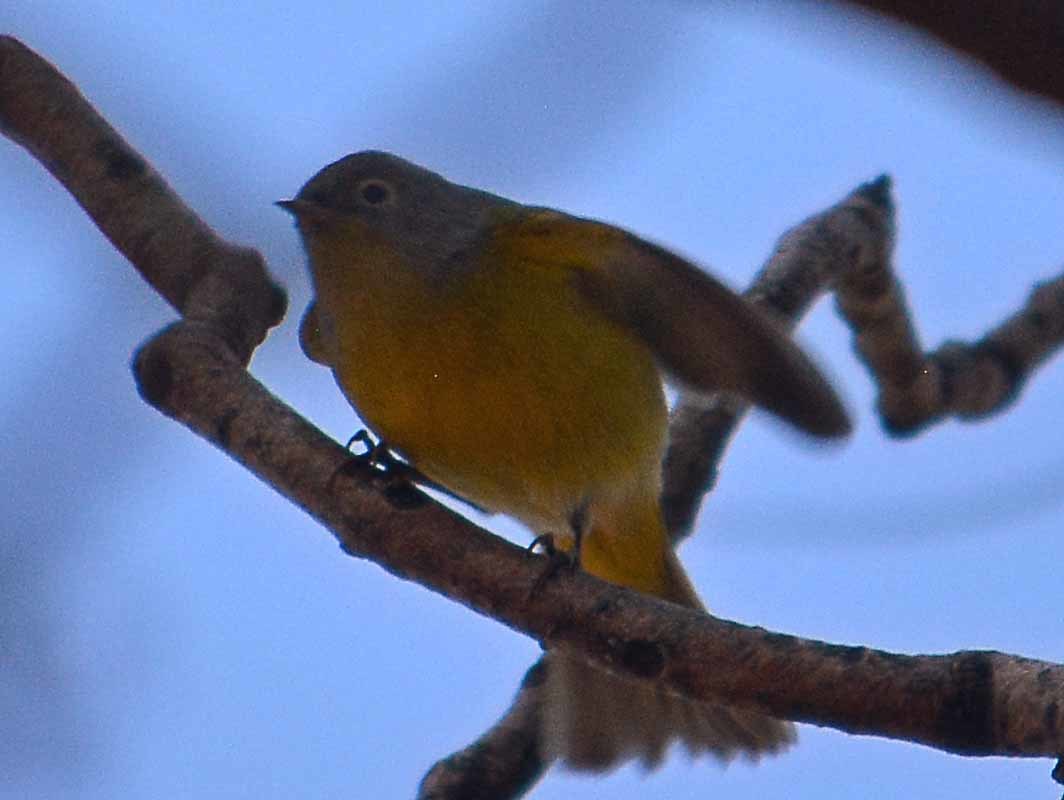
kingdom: Animalia
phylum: Chordata
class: Aves
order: Passeriformes
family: Parulidae
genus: Leiothlypis
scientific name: Leiothlypis ruficapilla
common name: Nashville warbler
